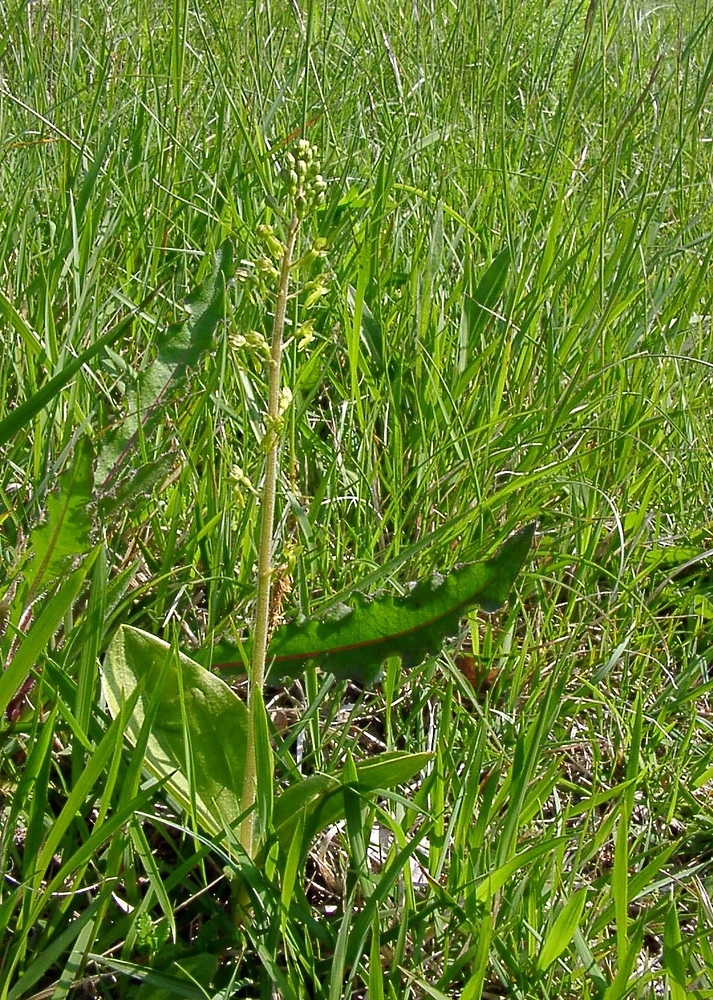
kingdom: Plantae
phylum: Tracheophyta
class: Liliopsida
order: Asparagales
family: Orchidaceae
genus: Neottia
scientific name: Neottia ovata
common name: Common twayblade
